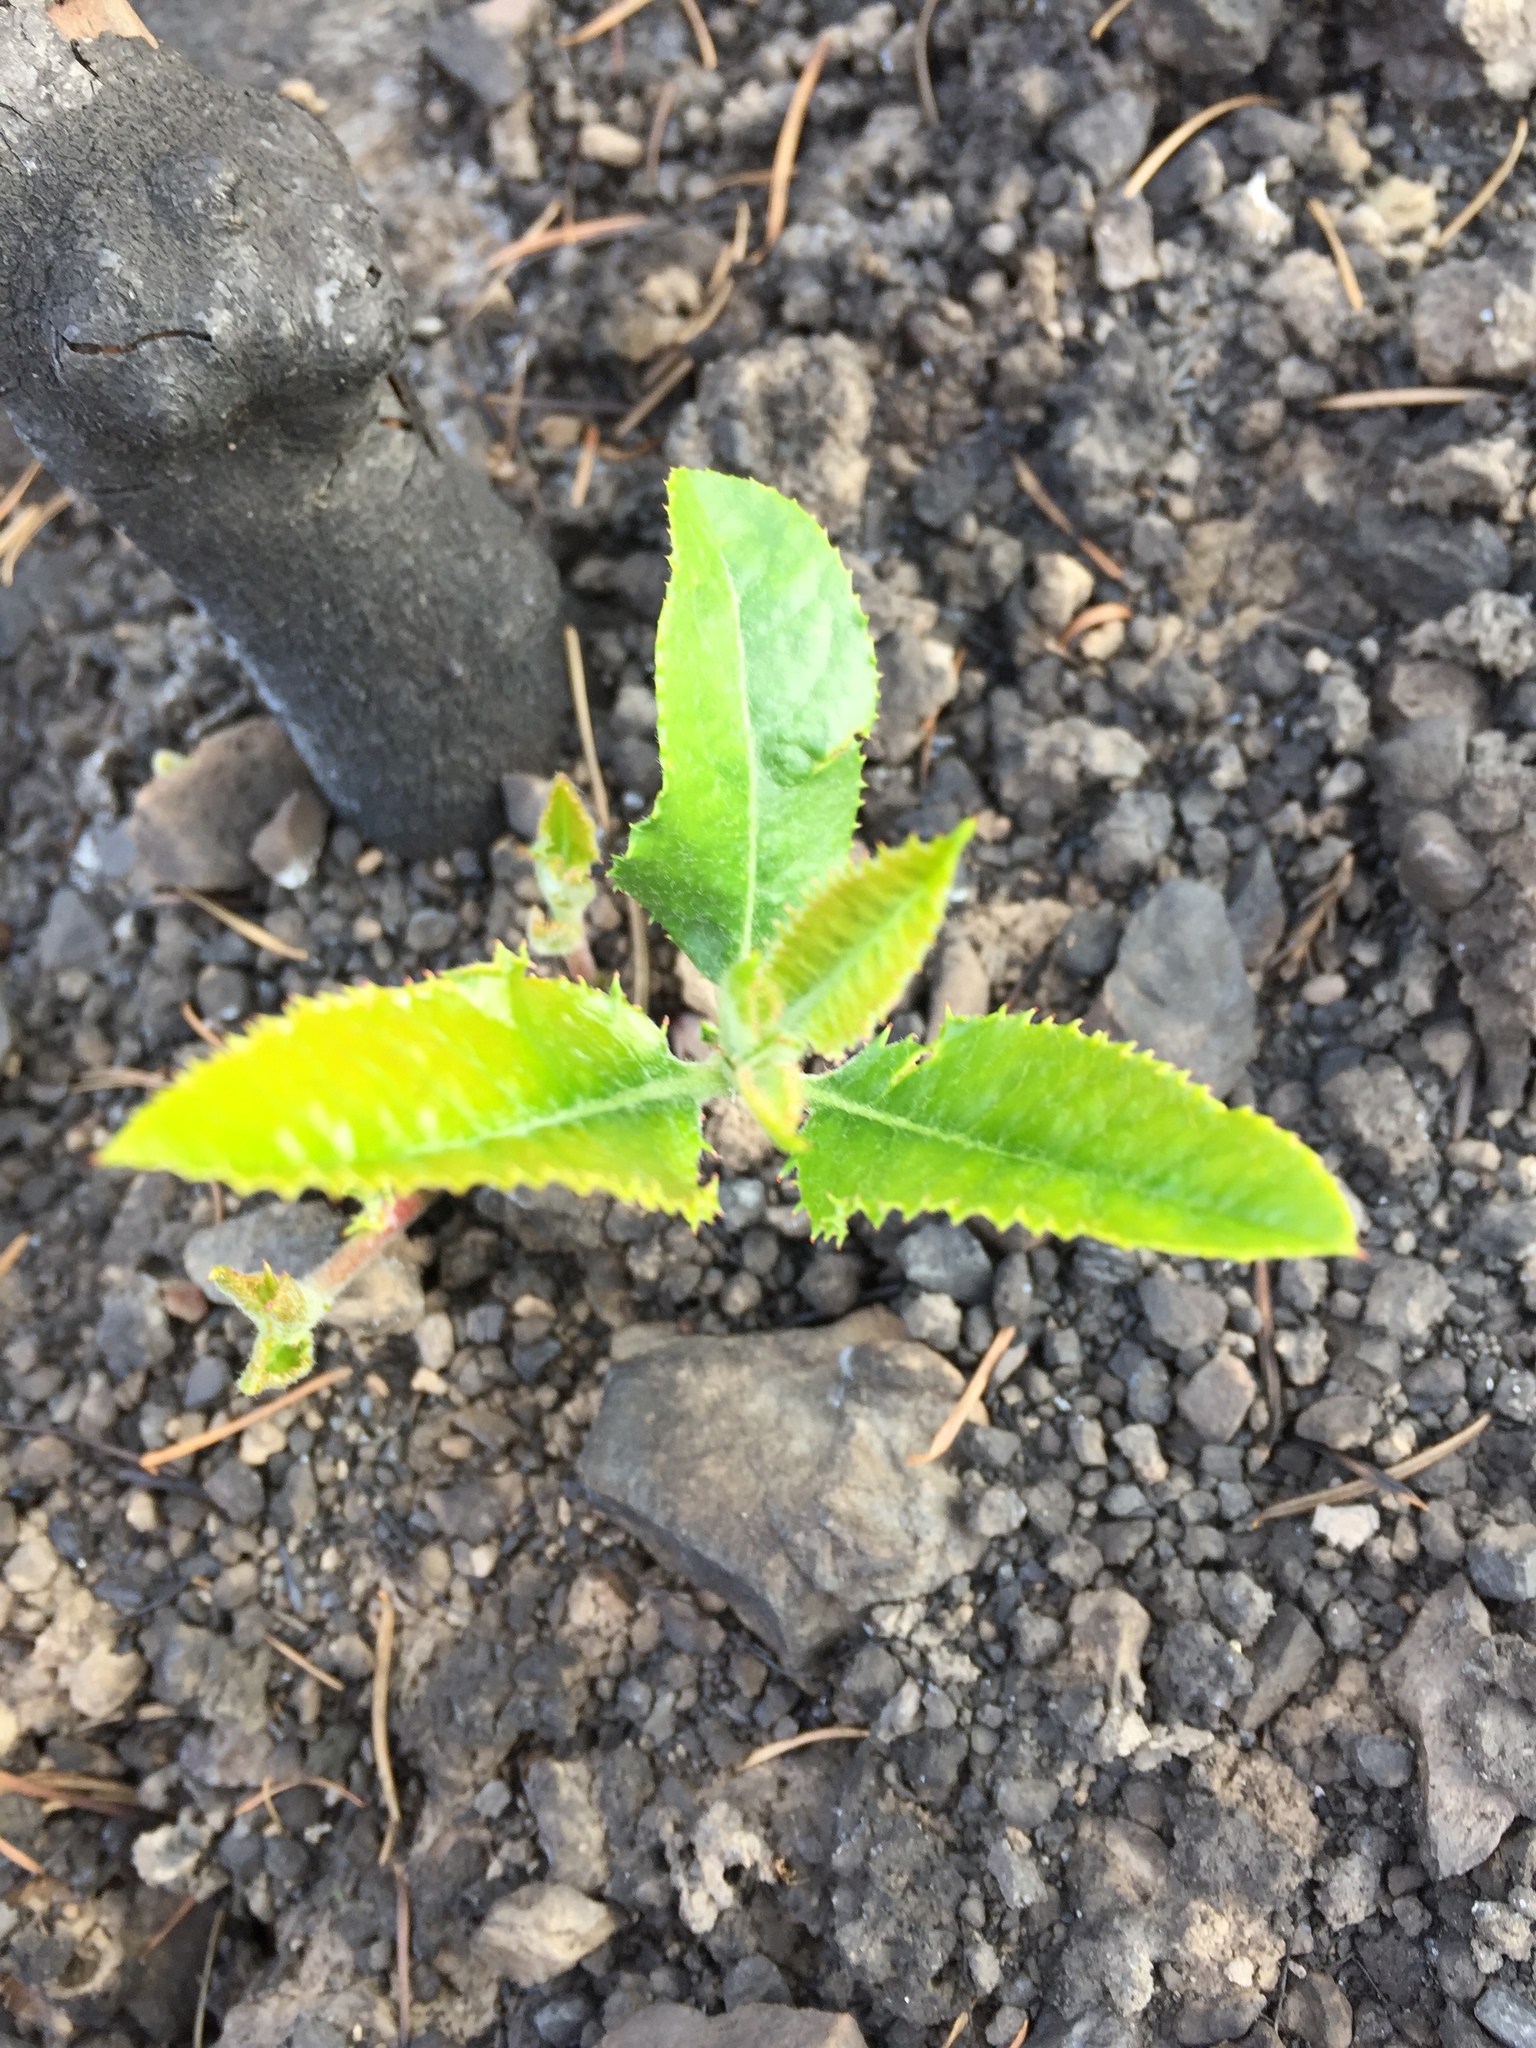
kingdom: Plantae
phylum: Tracheophyta
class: Magnoliopsida
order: Rosales
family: Rosaceae
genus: Heteromeles
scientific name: Heteromeles arbutifolia
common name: California-holly
